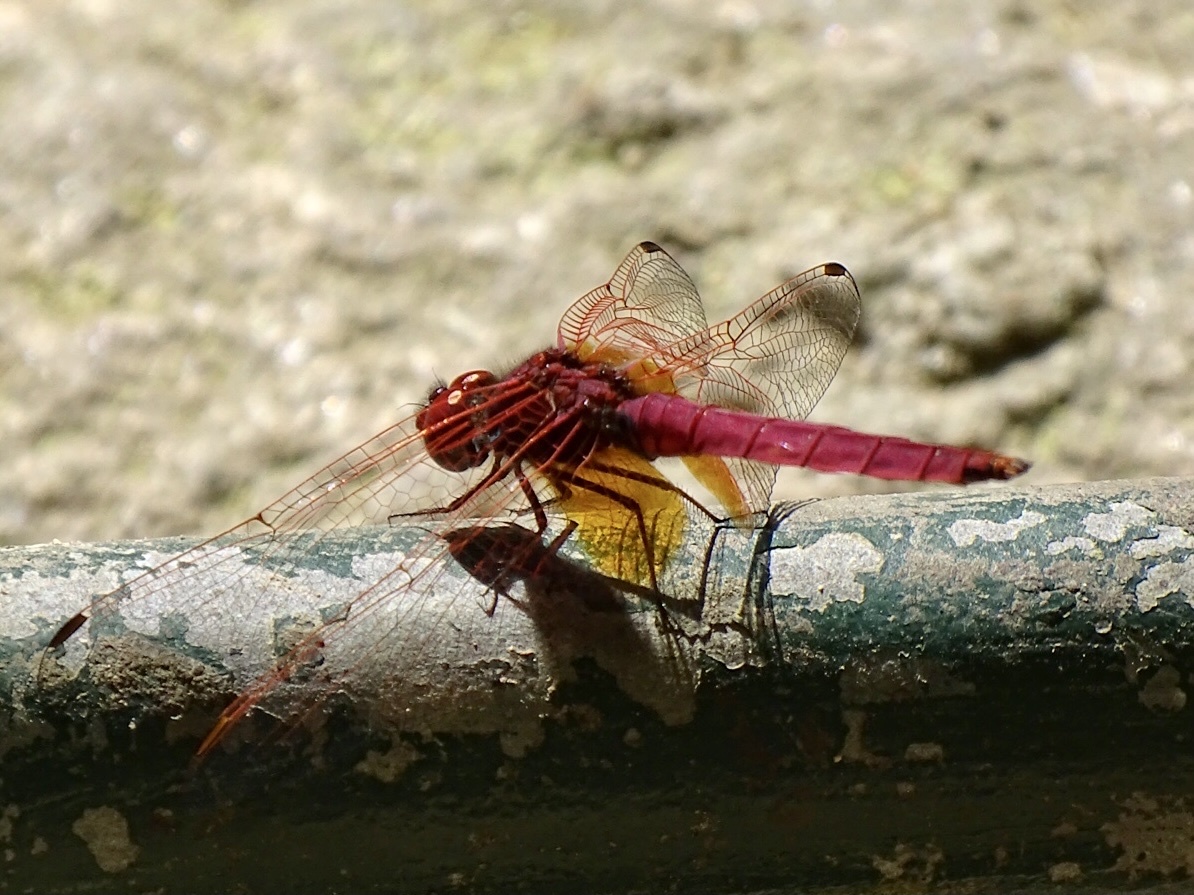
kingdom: Animalia
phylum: Arthropoda
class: Insecta
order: Odonata
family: Libellulidae
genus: Trithemis
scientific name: Trithemis aurora
